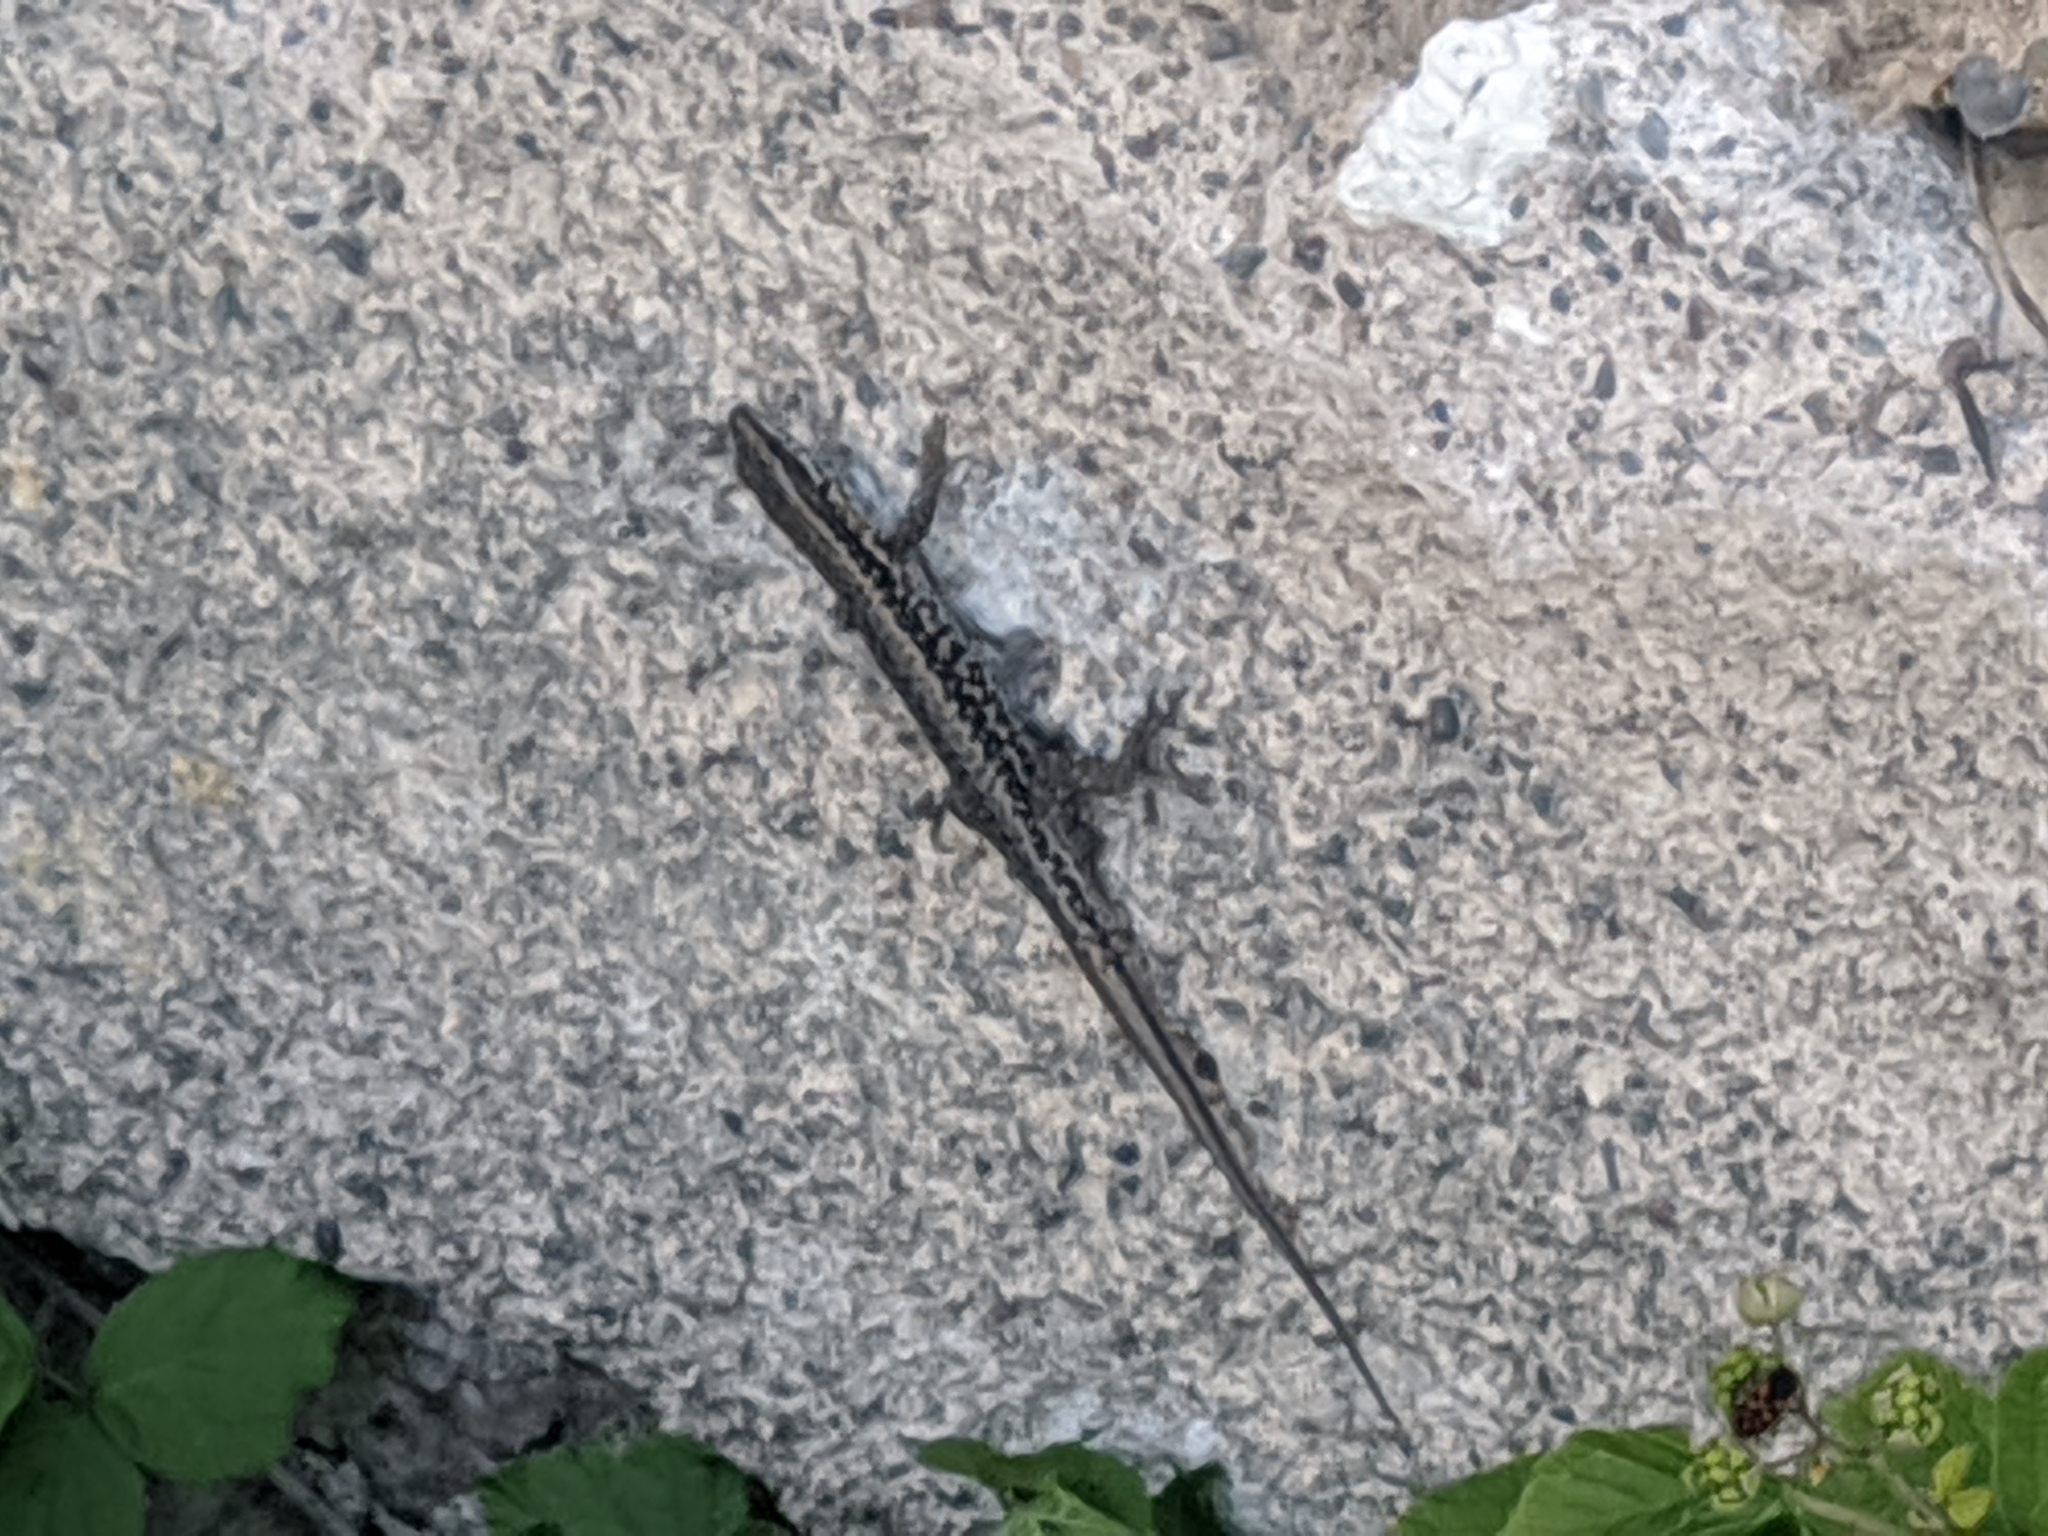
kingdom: Animalia
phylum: Chordata
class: Squamata
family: Lacertidae
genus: Podarcis
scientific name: Podarcis muralis
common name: Common wall lizard
